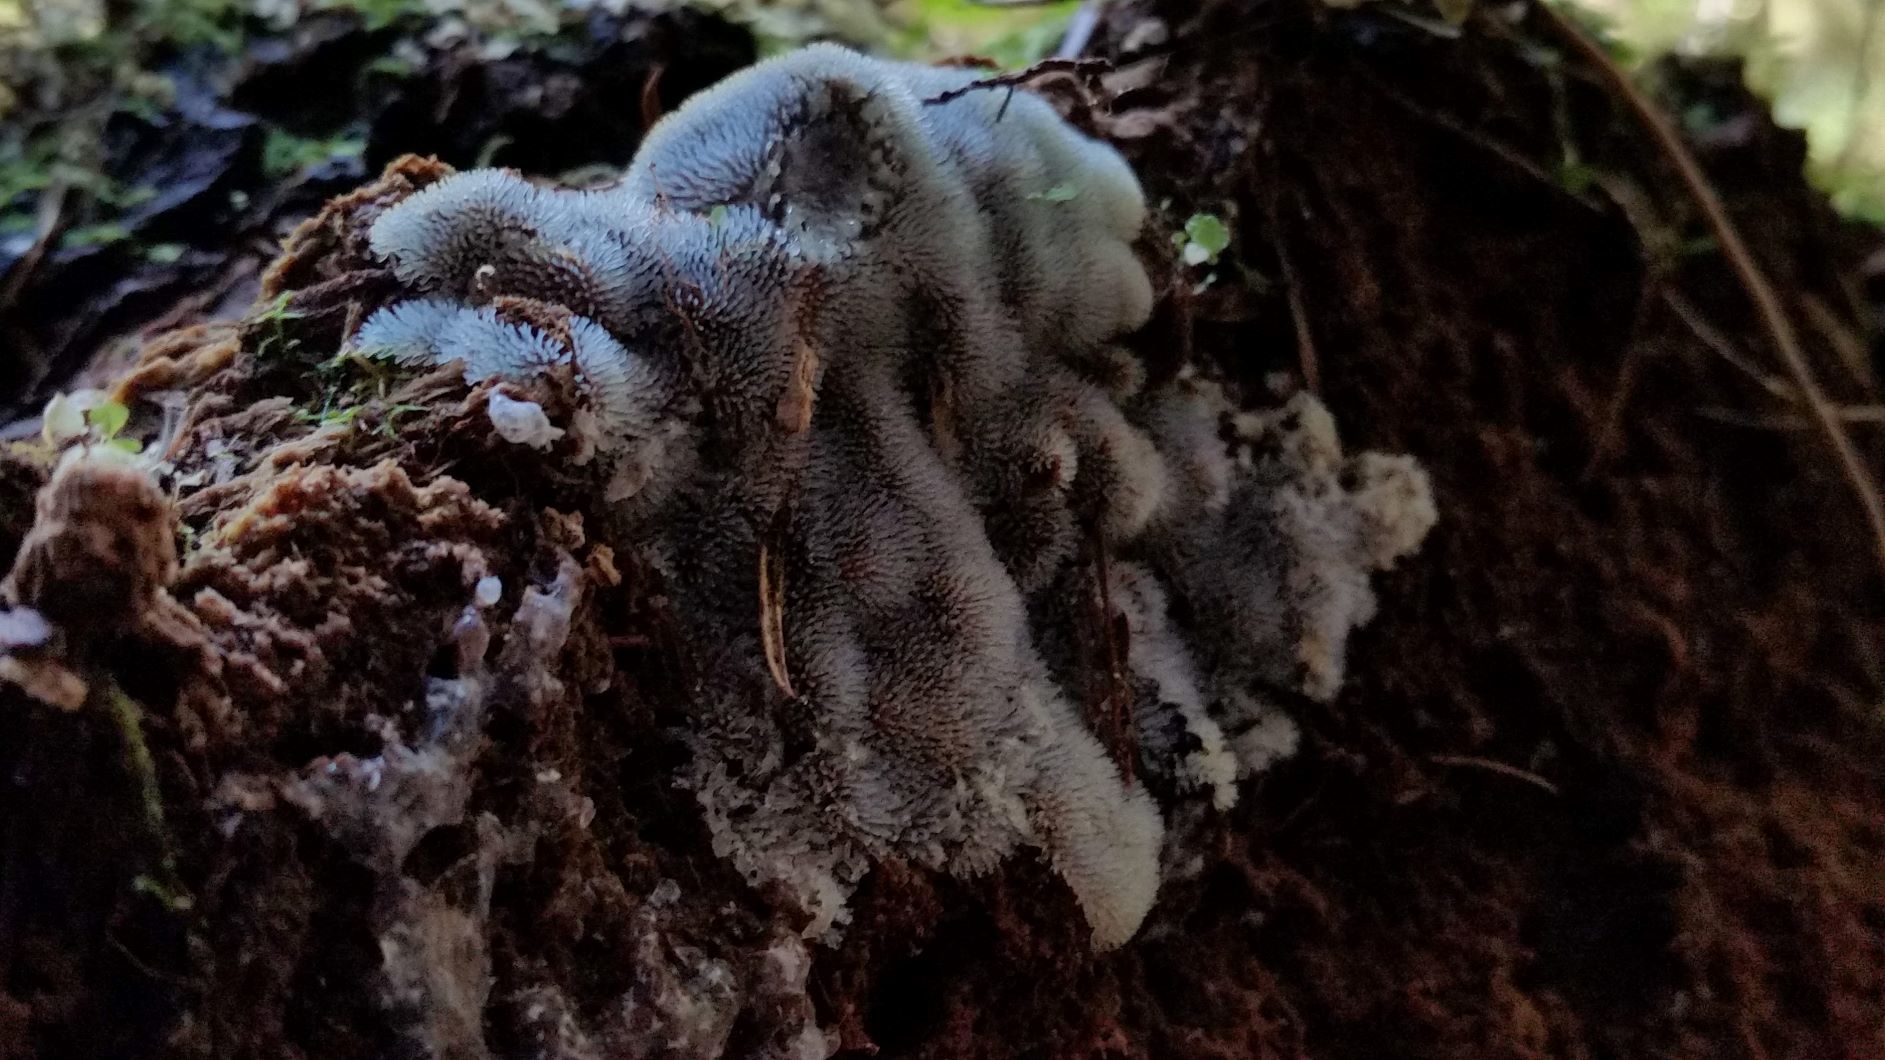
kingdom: Protozoa
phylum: Mycetozoa
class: Protosteliomycetes
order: Ceratiomyxales
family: Ceratiomyxaceae
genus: Ceratiomyxa
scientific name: Ceratiomyxa fruticulosa
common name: Honeycomb coral slime mold
